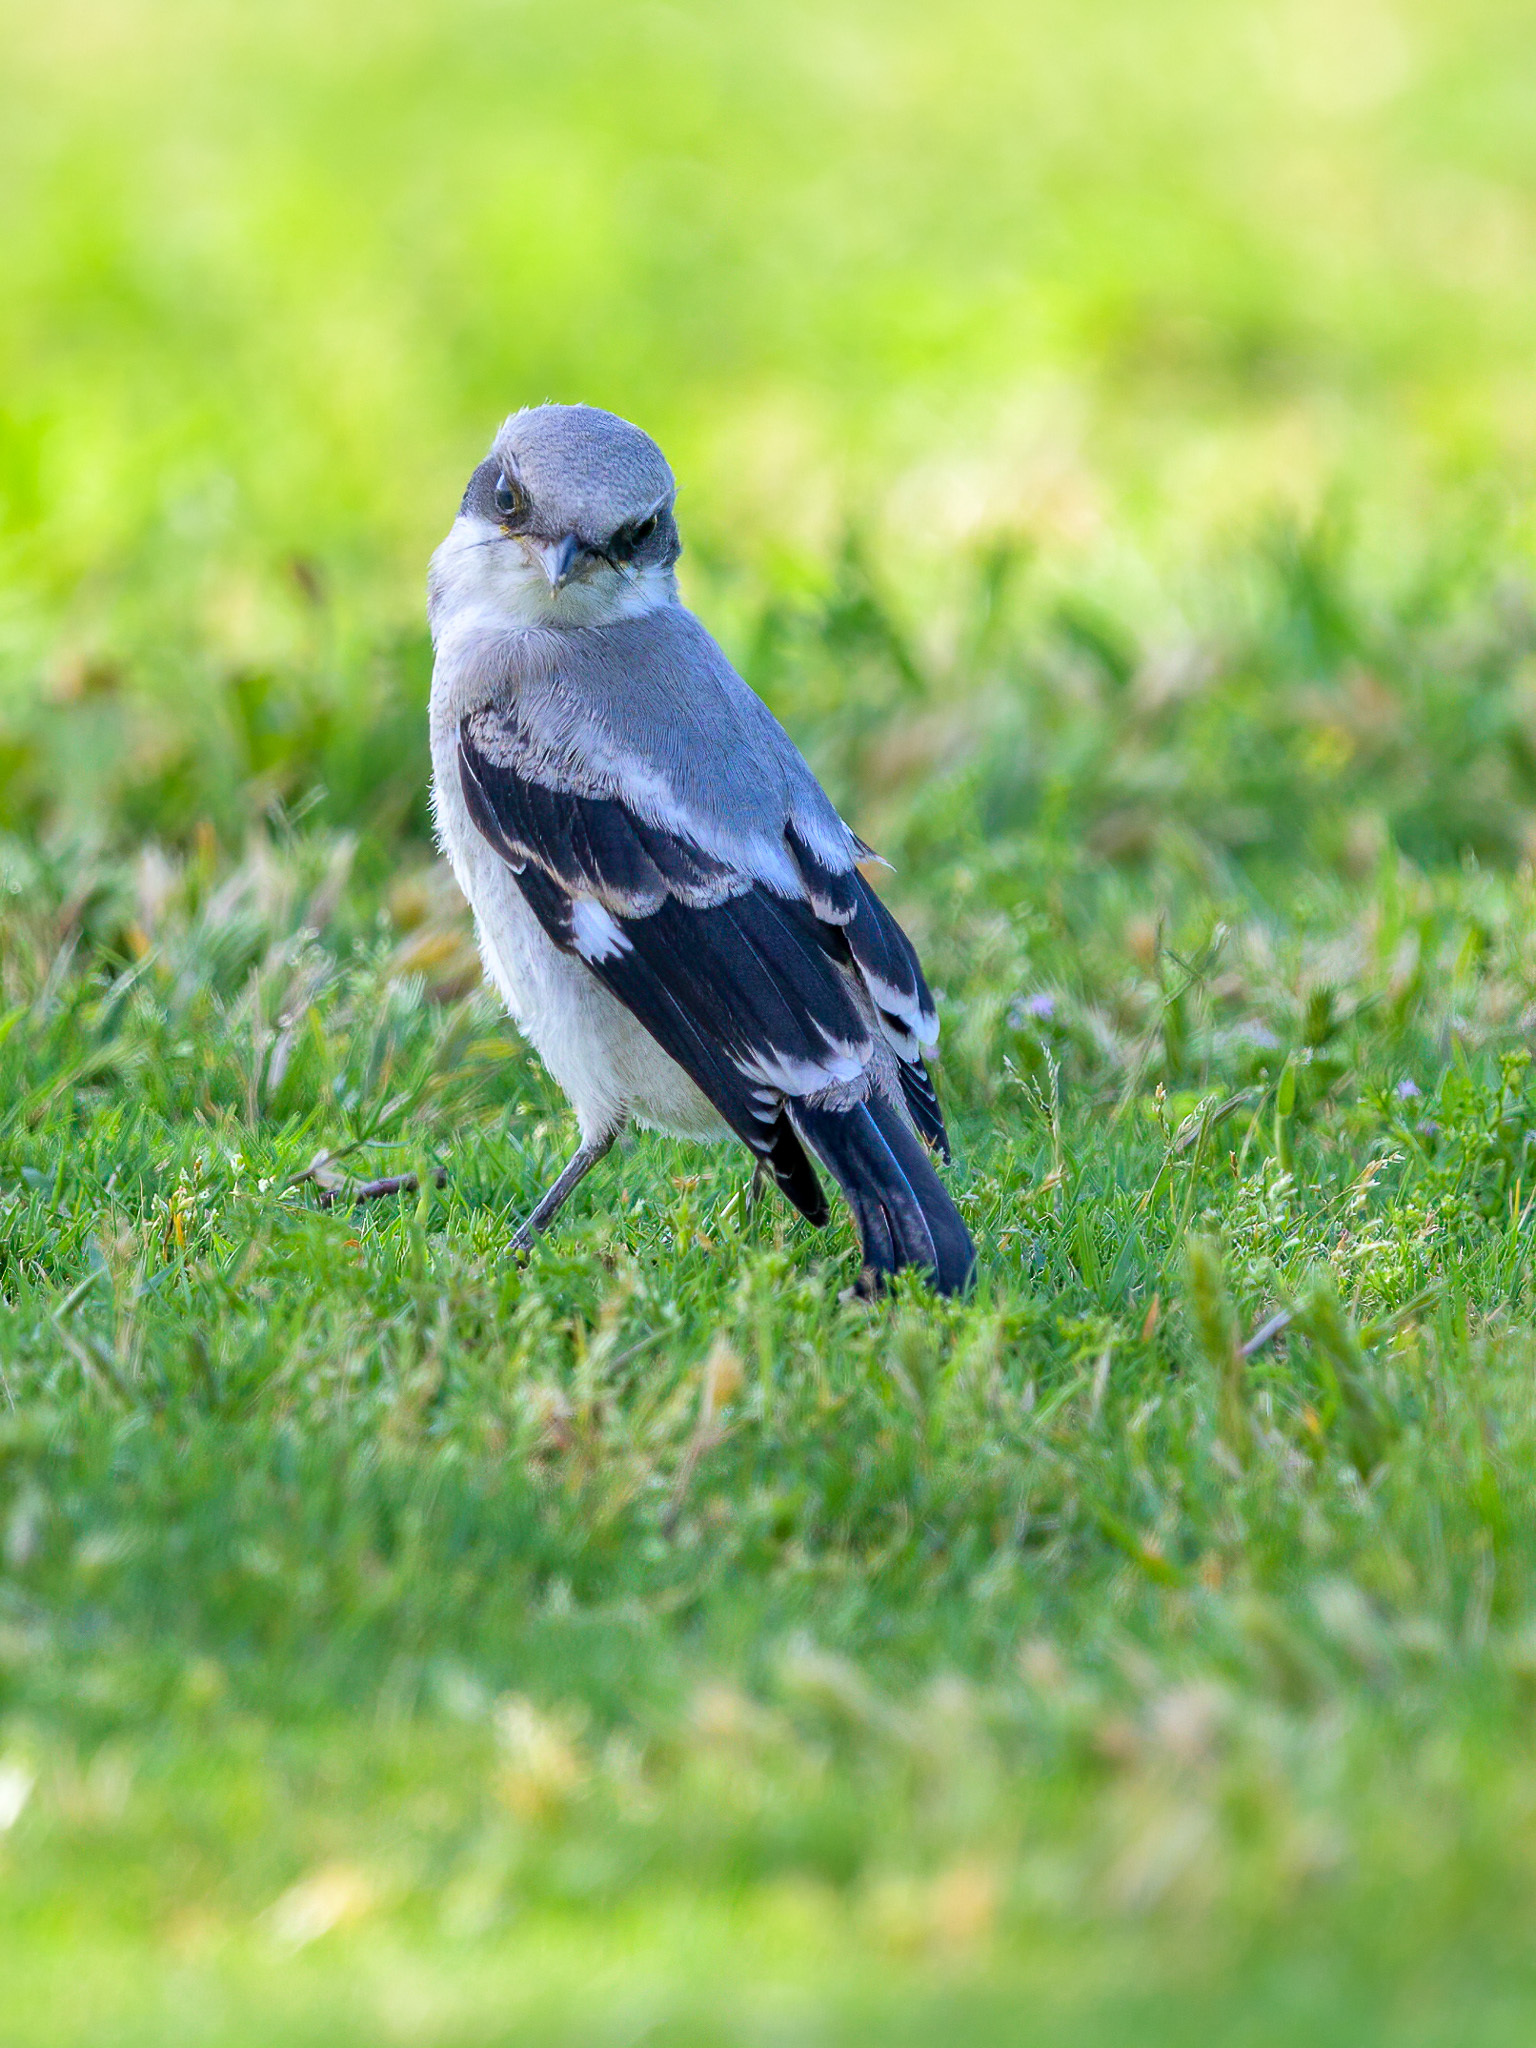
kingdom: Animalia
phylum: Chordata
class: Aves
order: Passeriformes
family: Laniidae
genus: Lanius
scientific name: Lanius ludovicianus
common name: Loggerhead shrike
